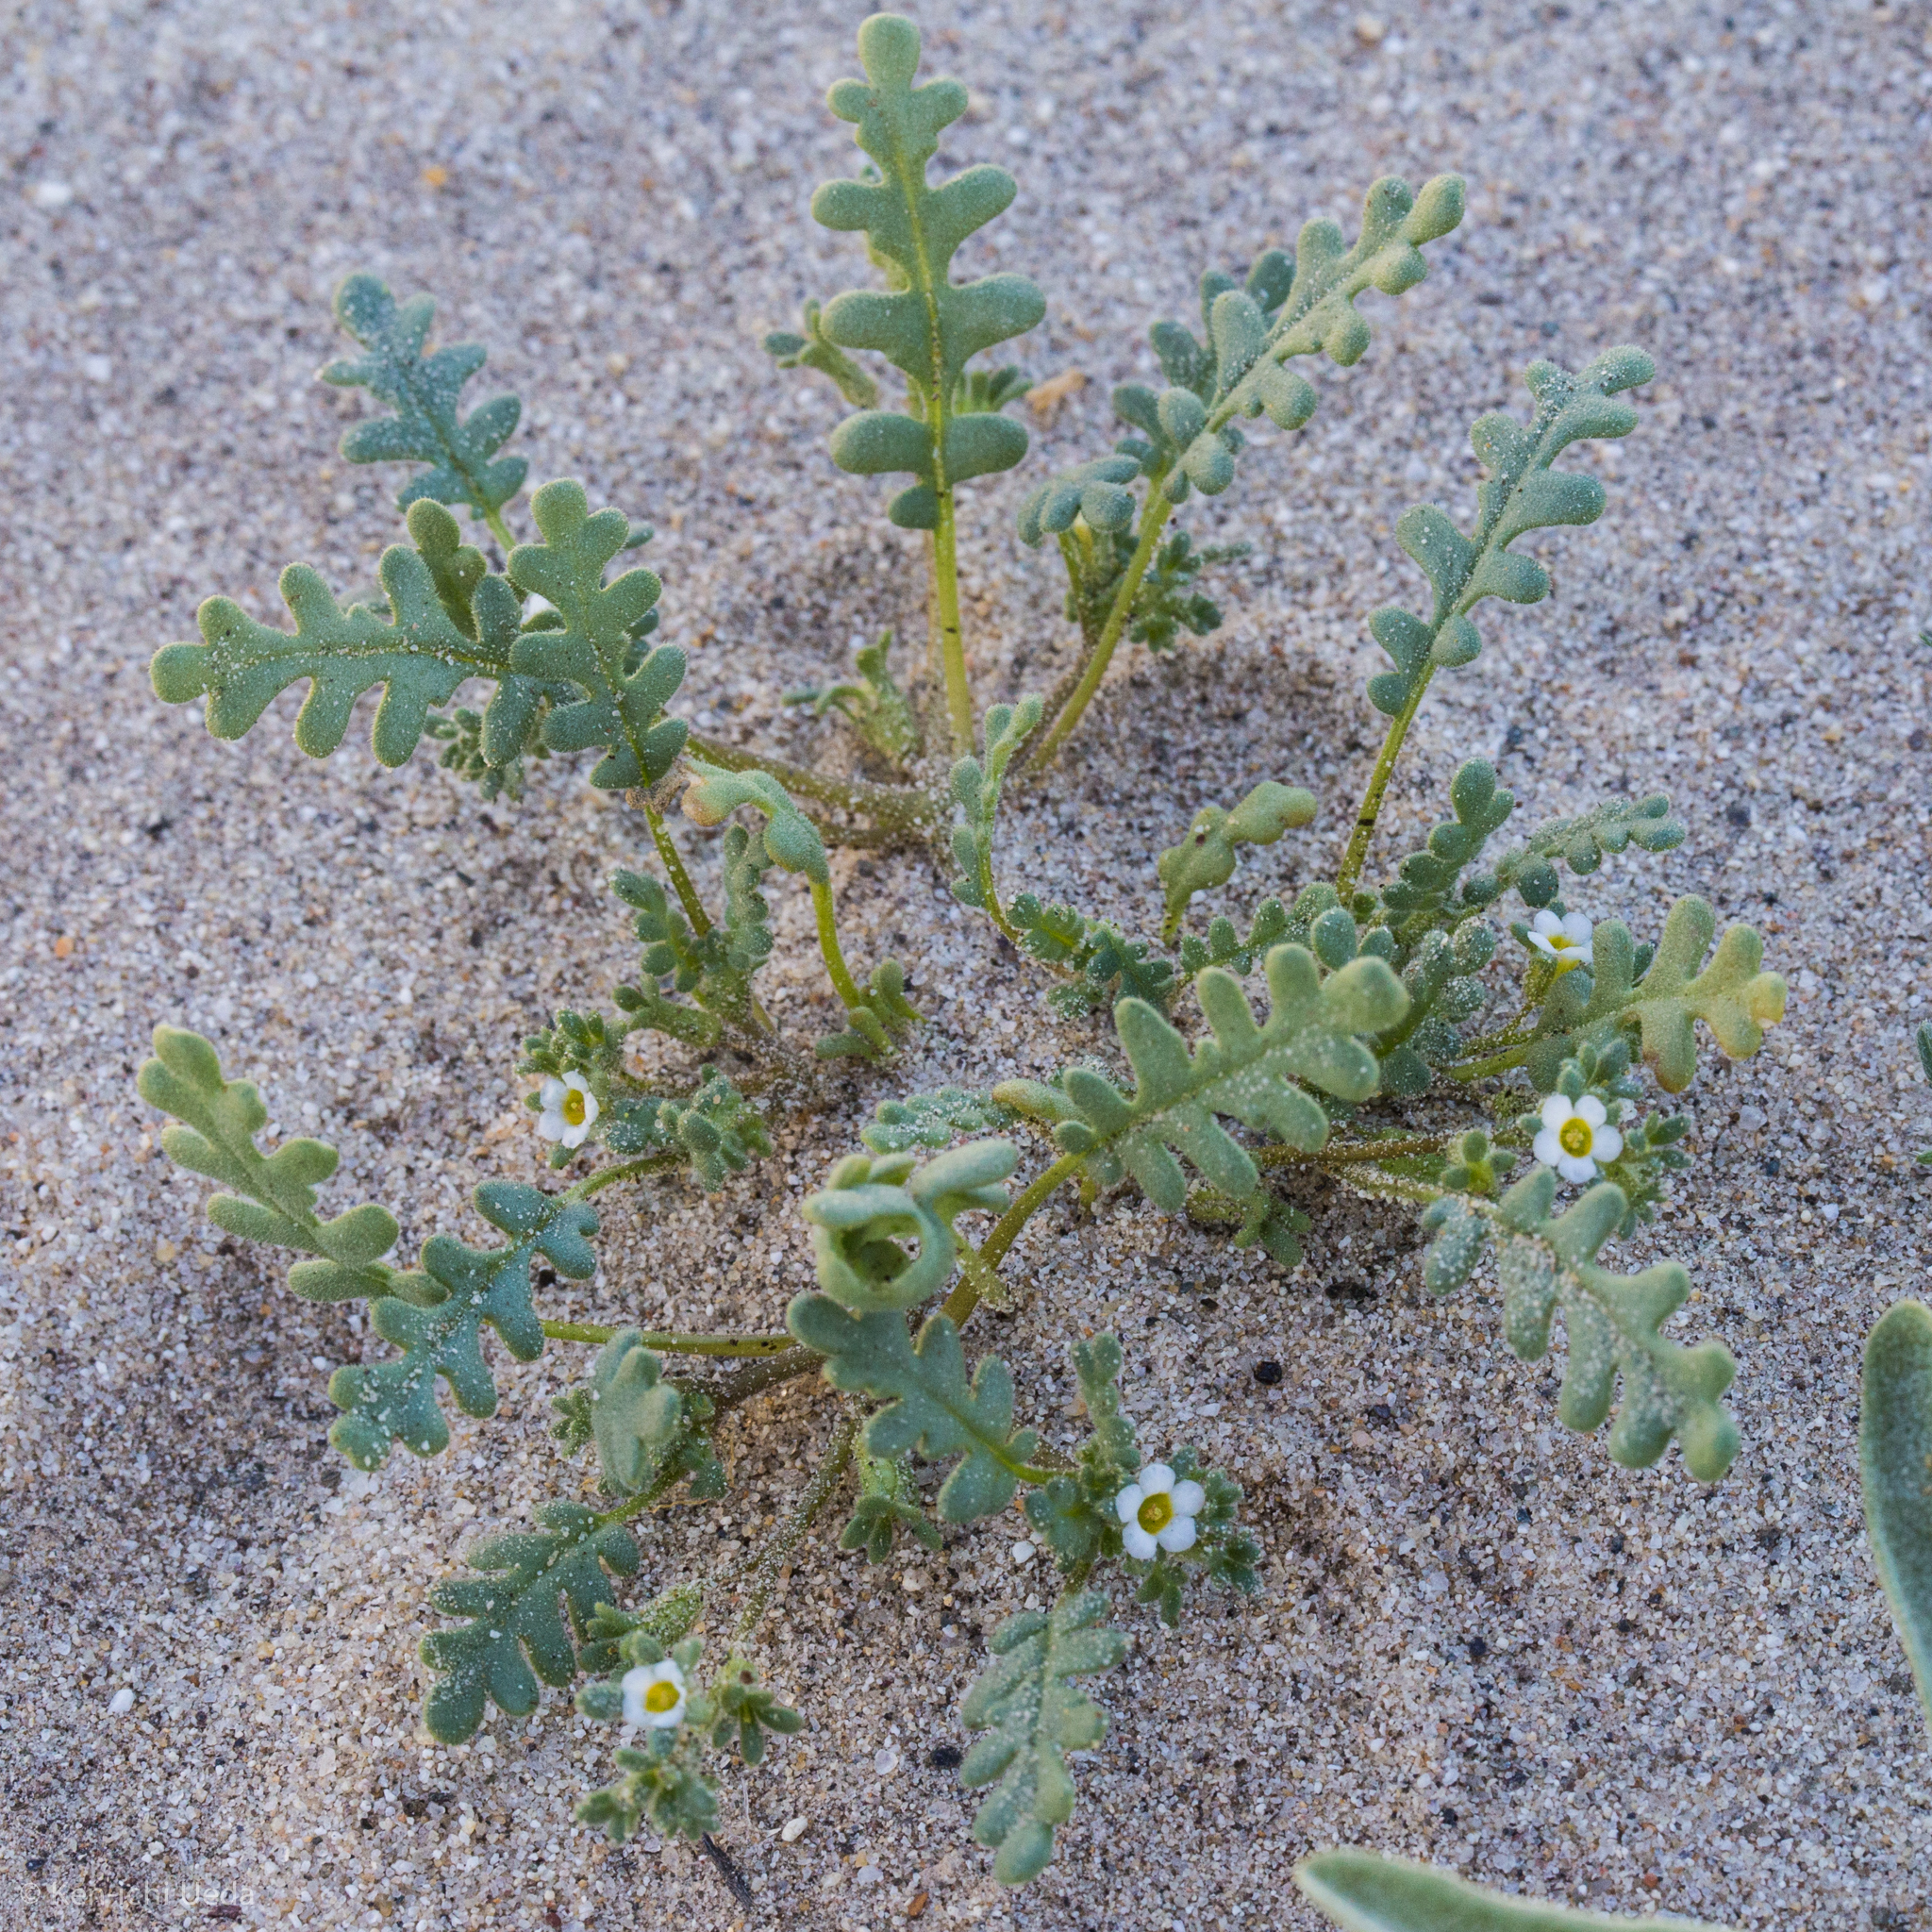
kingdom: Plantae
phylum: Tracheophyta
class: Magnoliopsida
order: Boraginales
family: Hydrophyllaceae
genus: Phacelia
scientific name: Phacelia ivesiana
